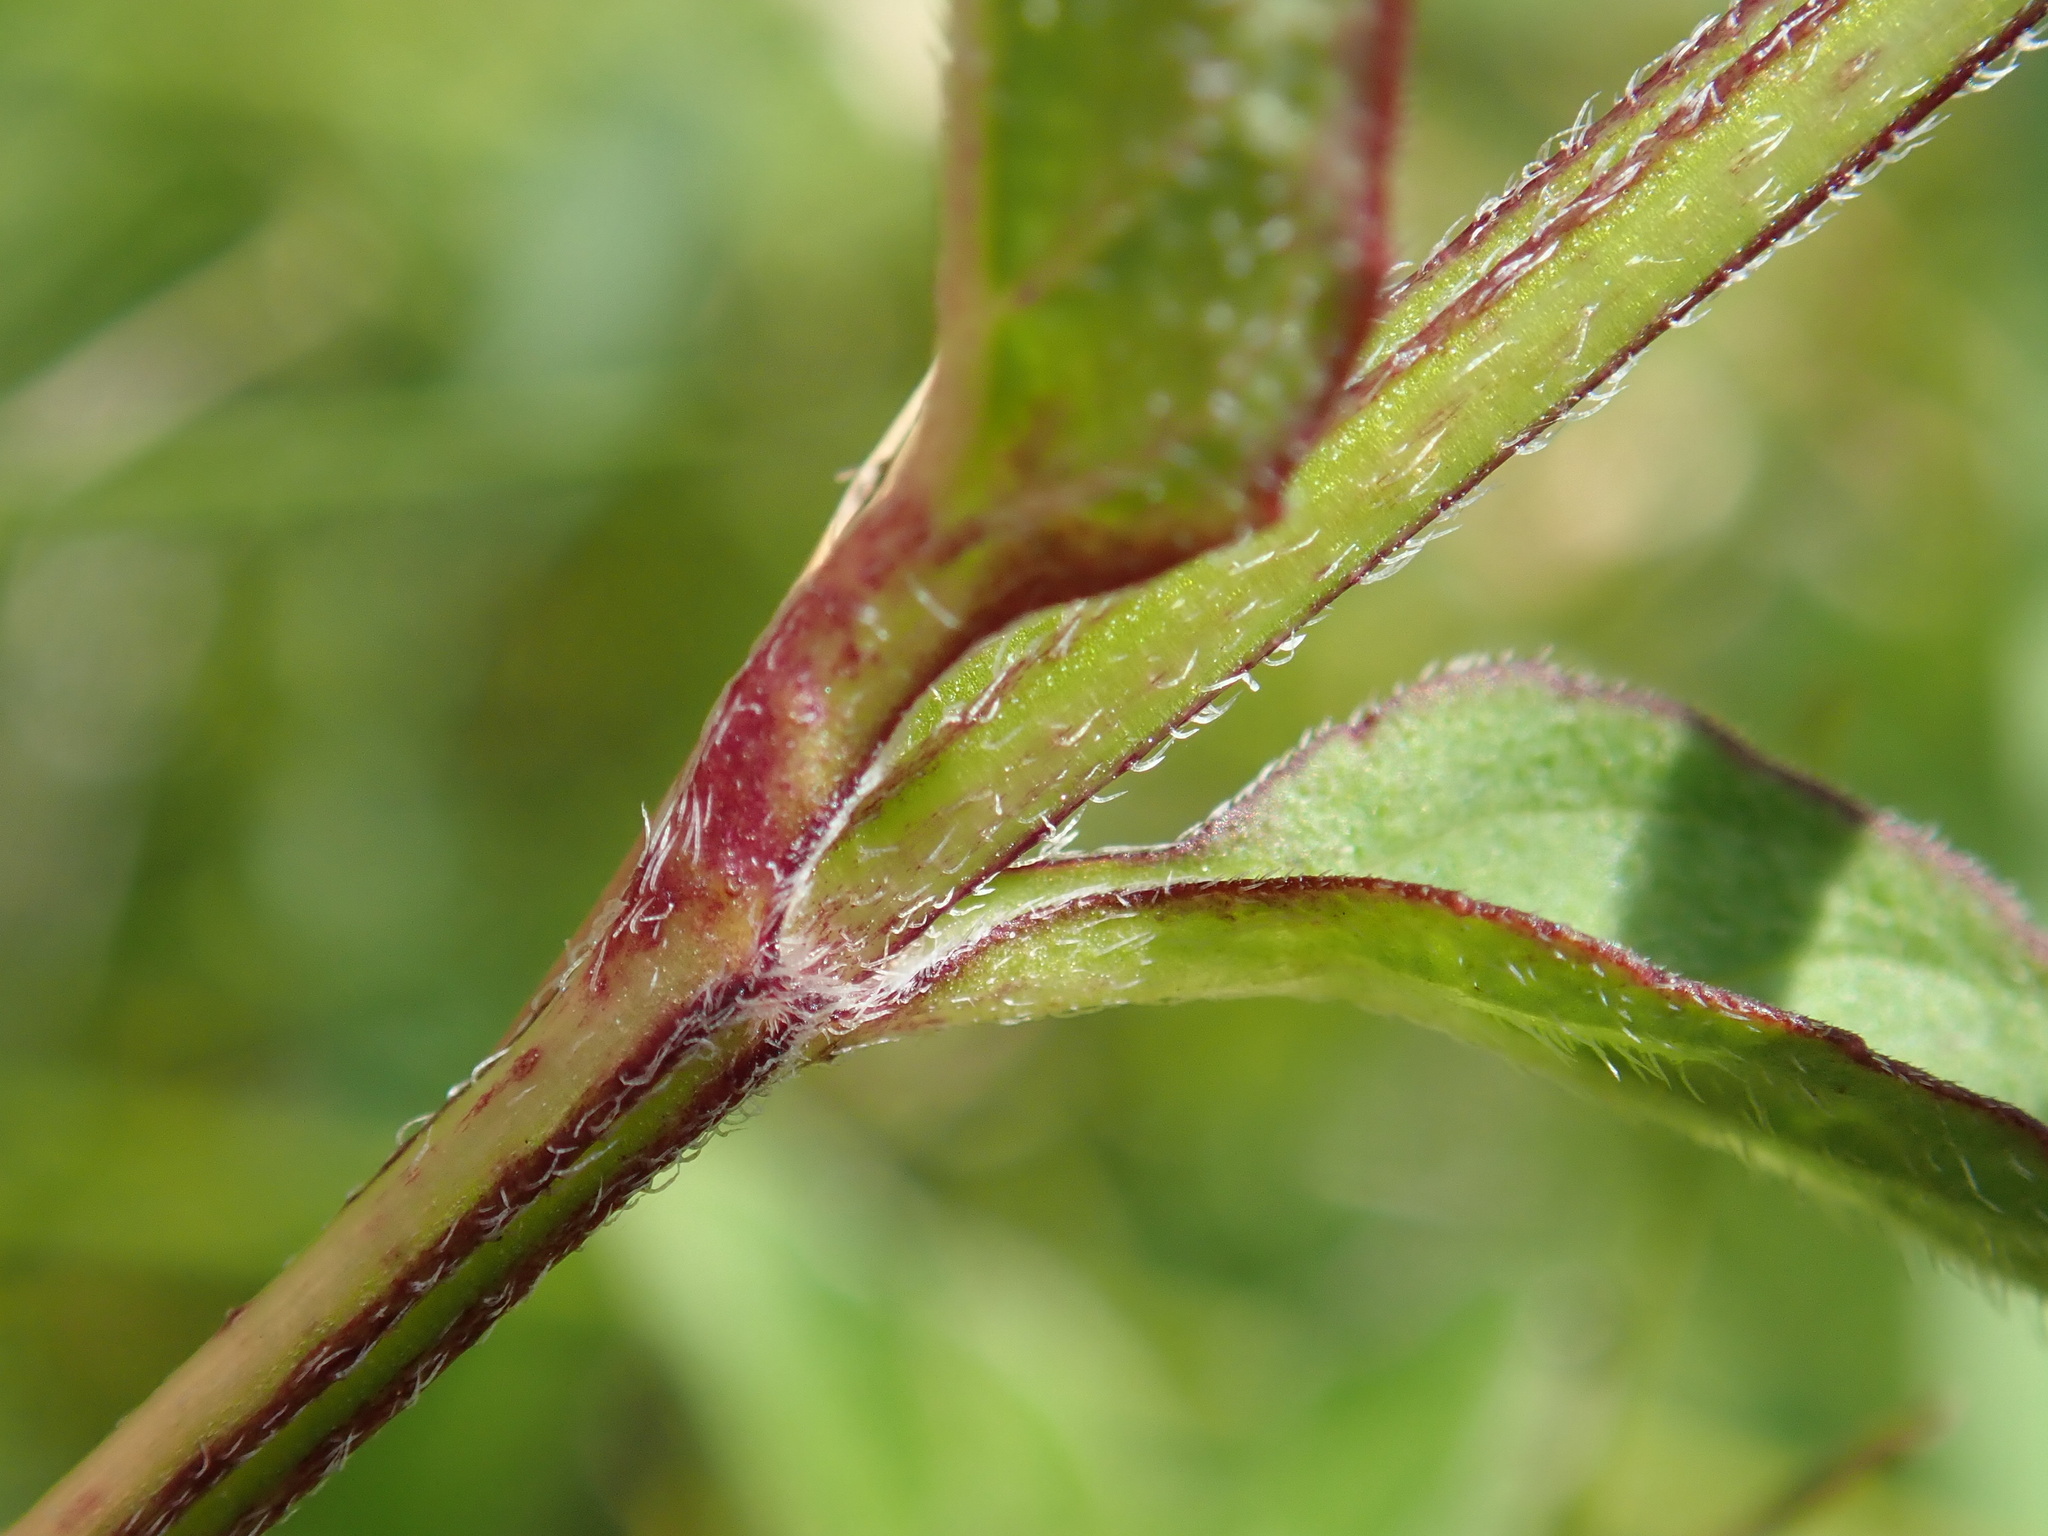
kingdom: Plantae
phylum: Tracheophyta
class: Magnoliopsida
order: Lamiales
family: Lamiaceae
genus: Prunella
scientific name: Prunella vulgaris
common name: Heal-all
